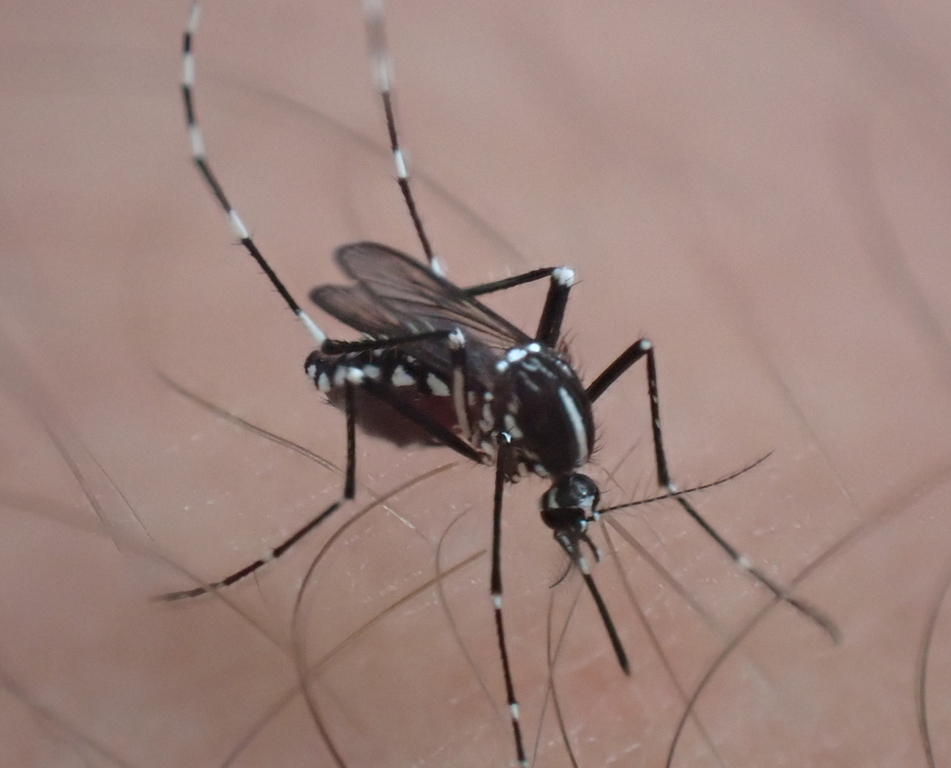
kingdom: Animalia
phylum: Arthropoda
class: Insecta
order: Diptera
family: Culicidae
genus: Aedes
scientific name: Aedes albopictus
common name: Tiger mosquito
